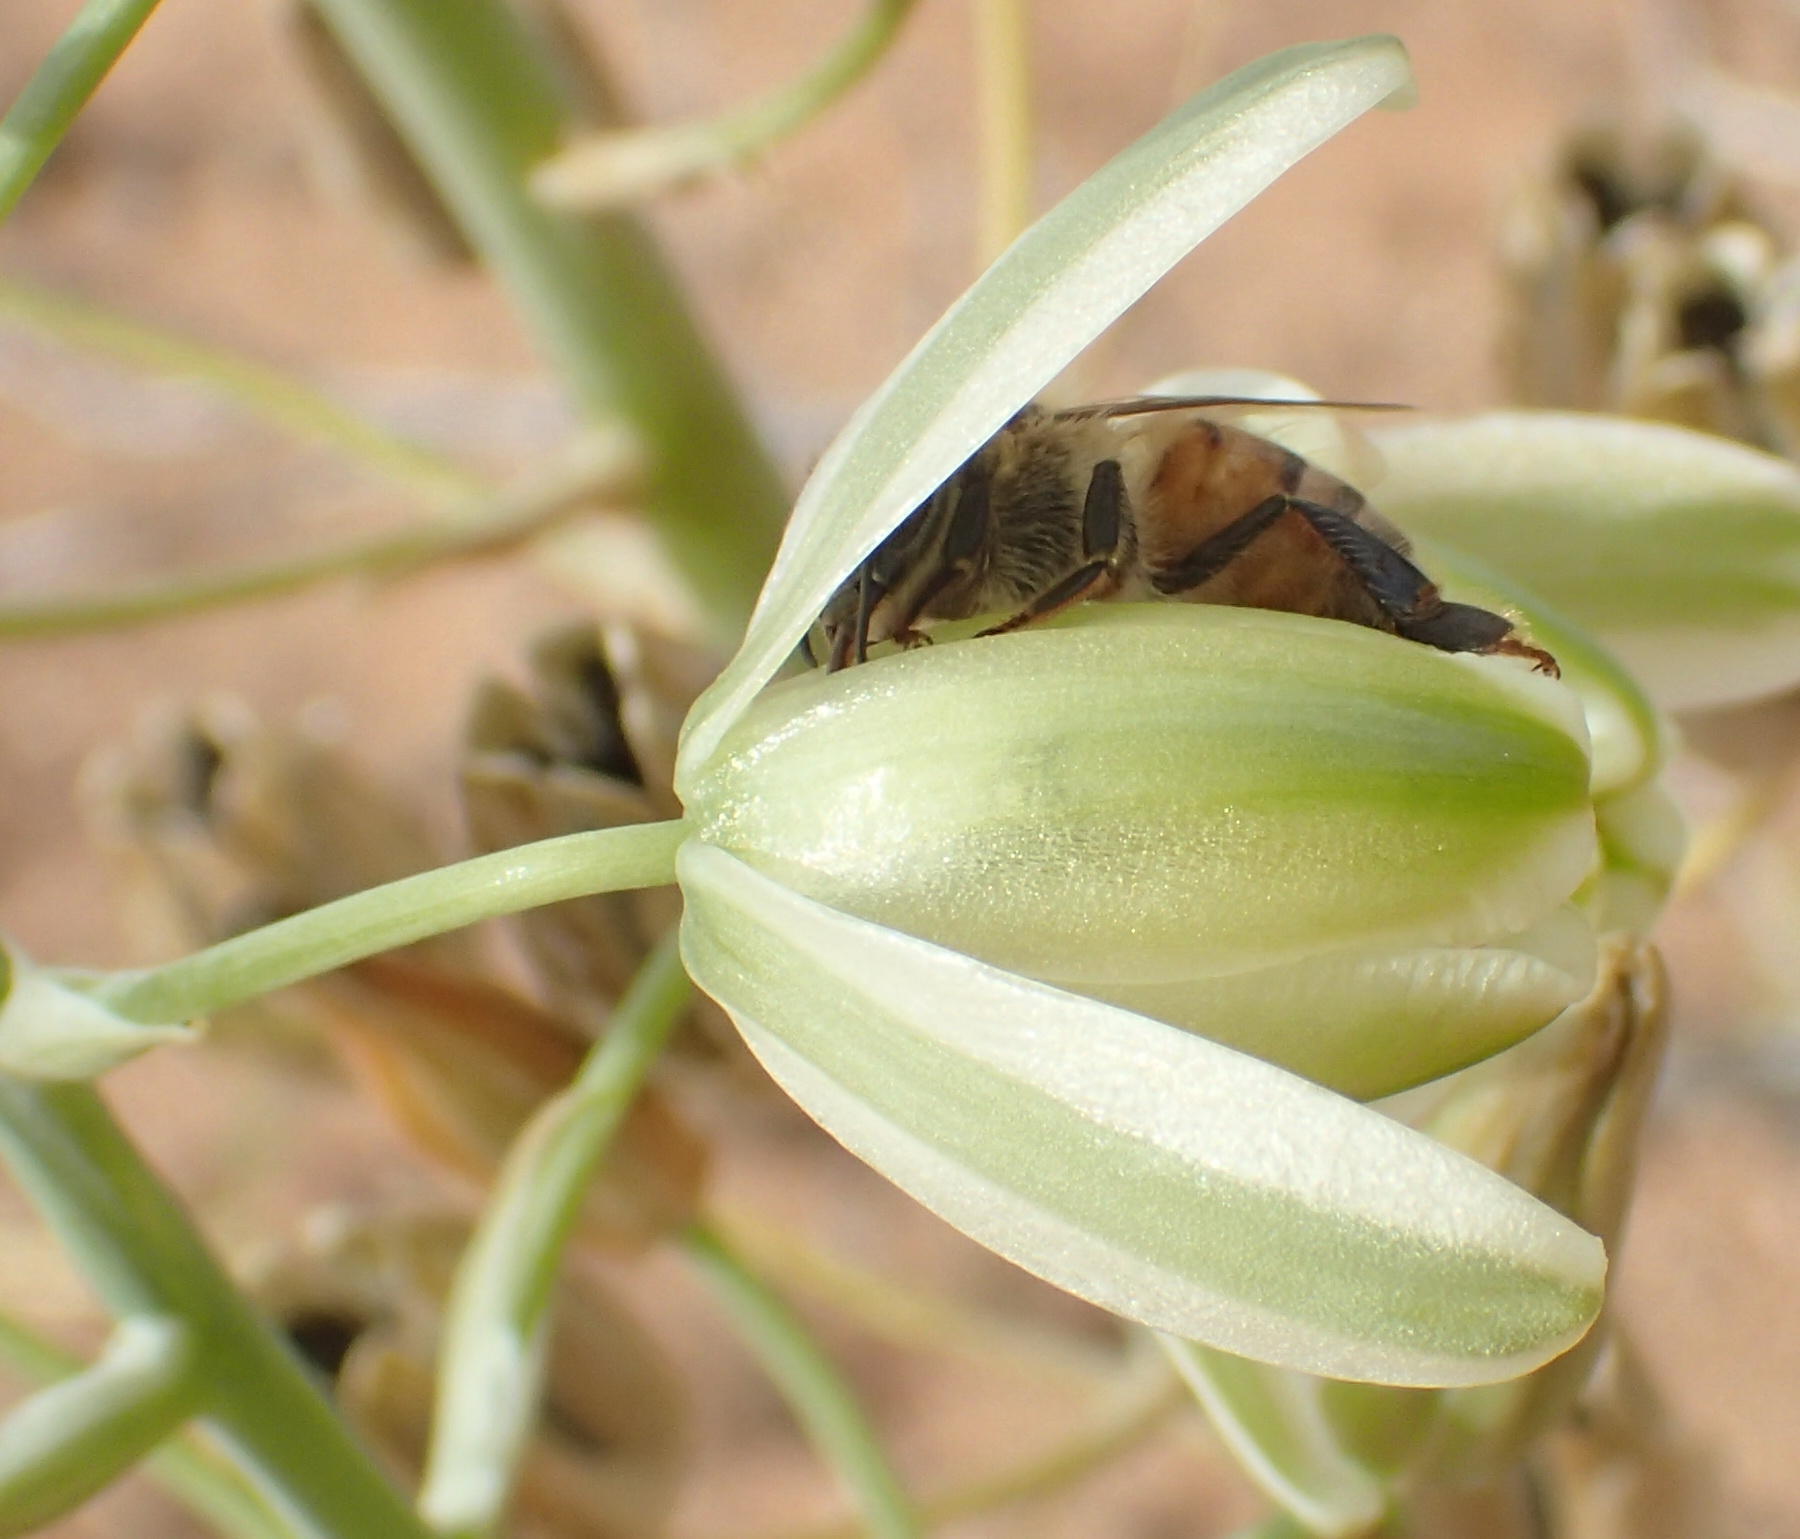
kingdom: Animalia
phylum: Arthropoda
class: Insecta
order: Hymenoptera
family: Apidae
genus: Apis
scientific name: Apis mellifera
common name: Honey bee
